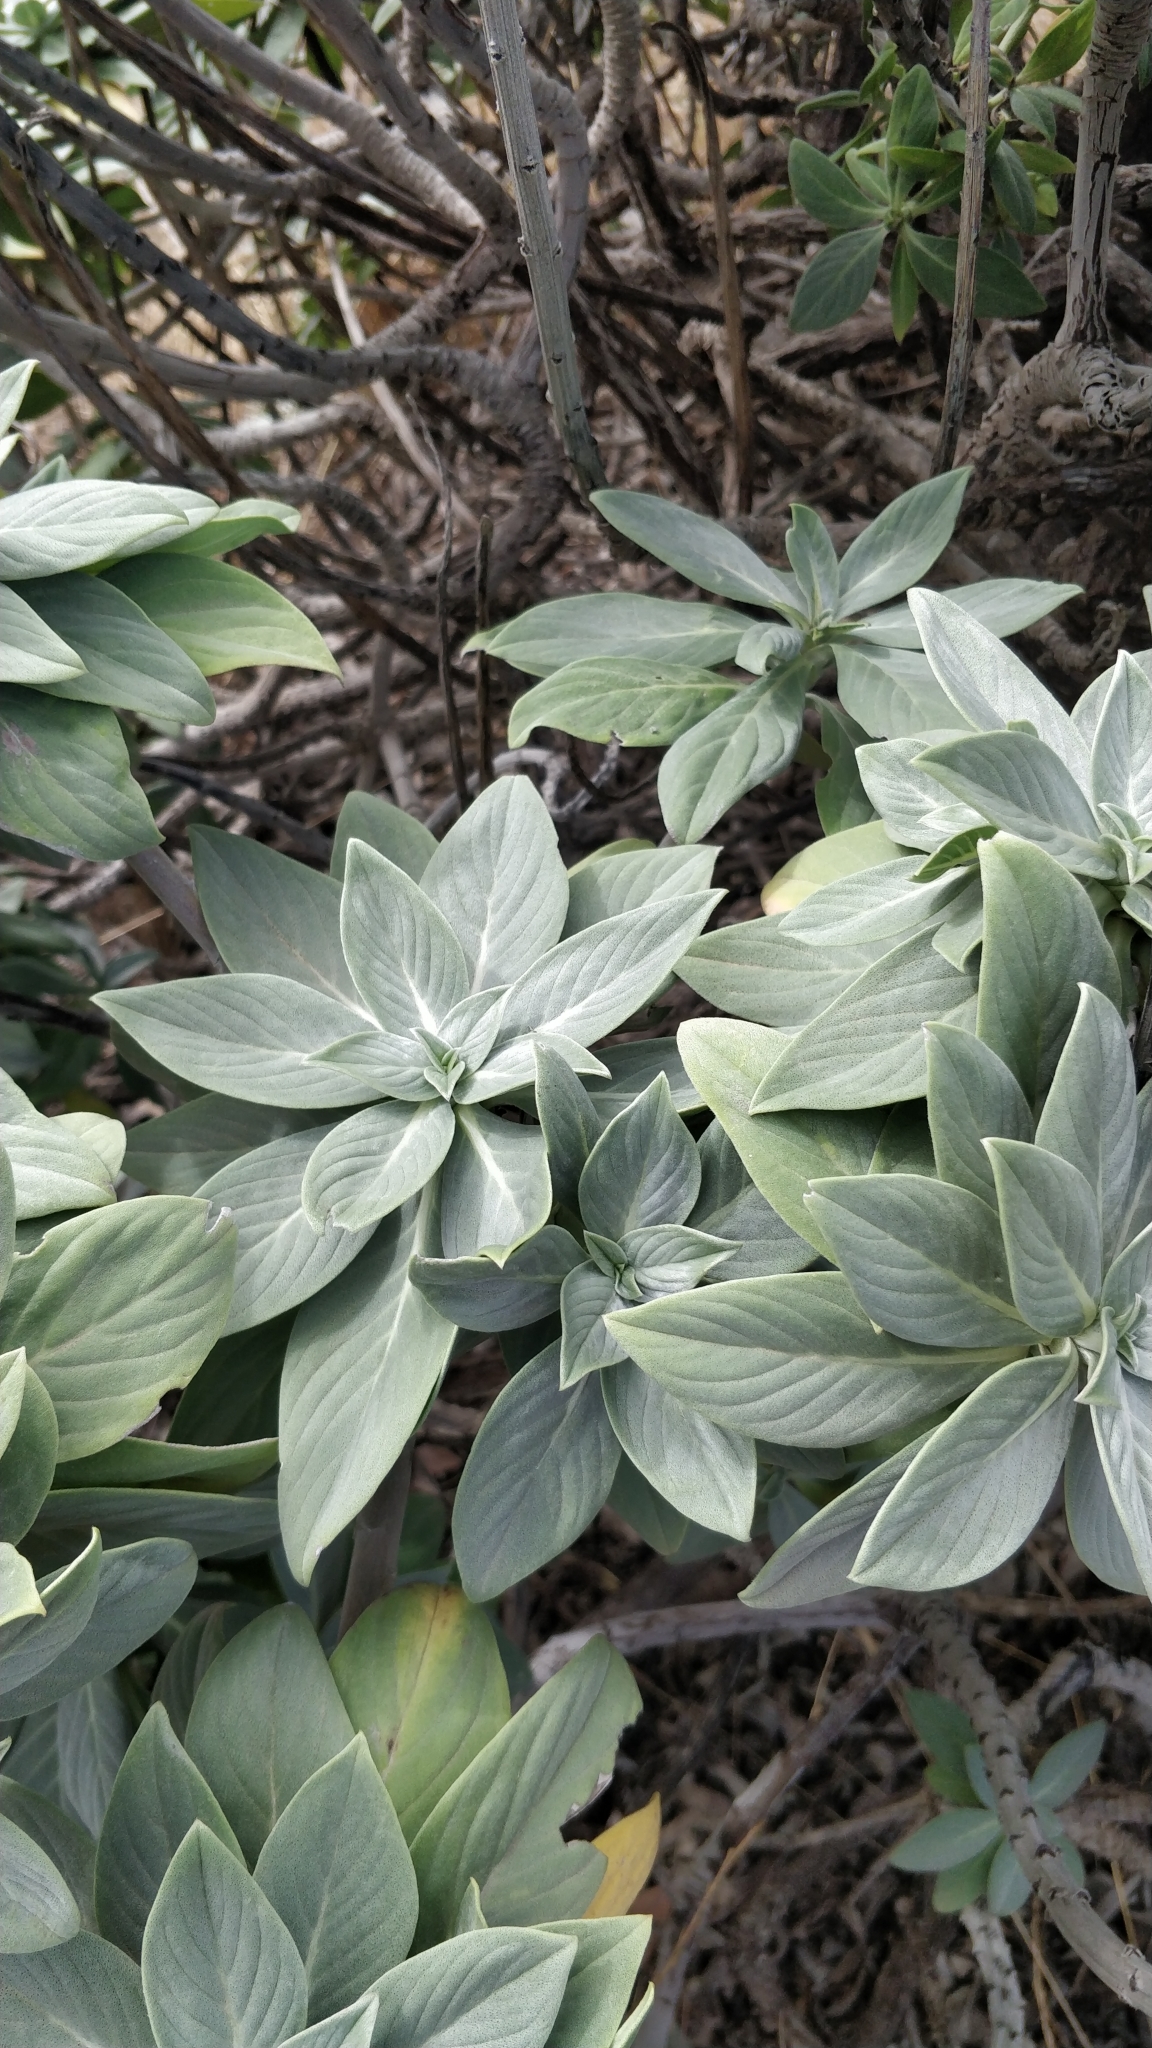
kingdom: Plantae
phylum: Tracheophyta
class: Magnoliopsida
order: Boraginales
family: Boraginaceae
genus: Echium
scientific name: Echium portosanctense
